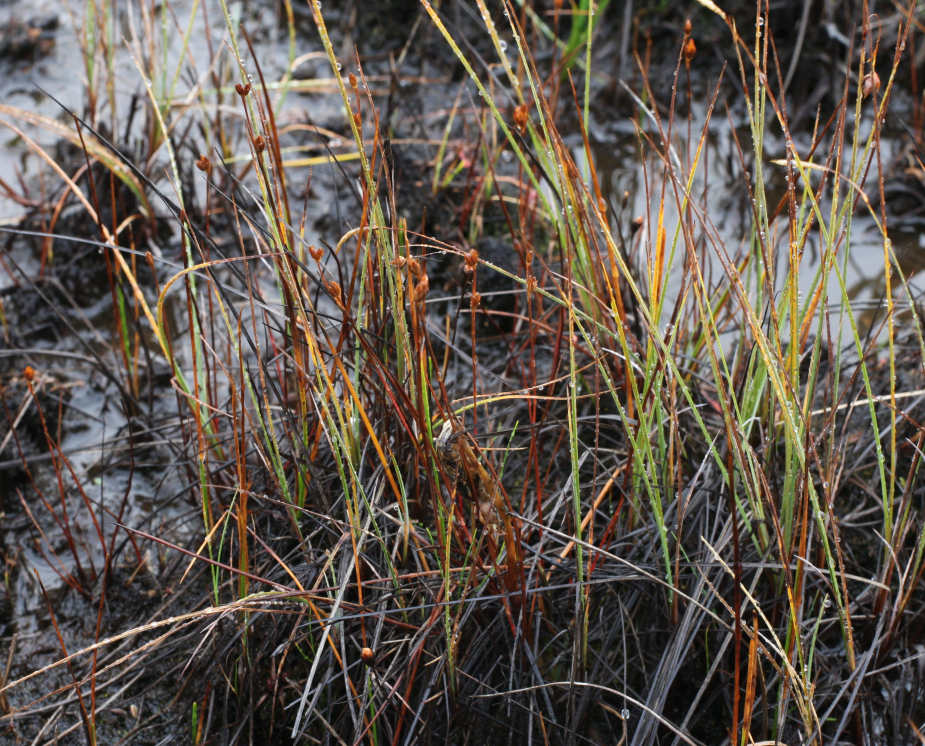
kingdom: Plantae
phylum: Tracheophyta
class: Liliopsida
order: Poales
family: Juncaceae
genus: Juncus
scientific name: Juncus stygius
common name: Bog rush
